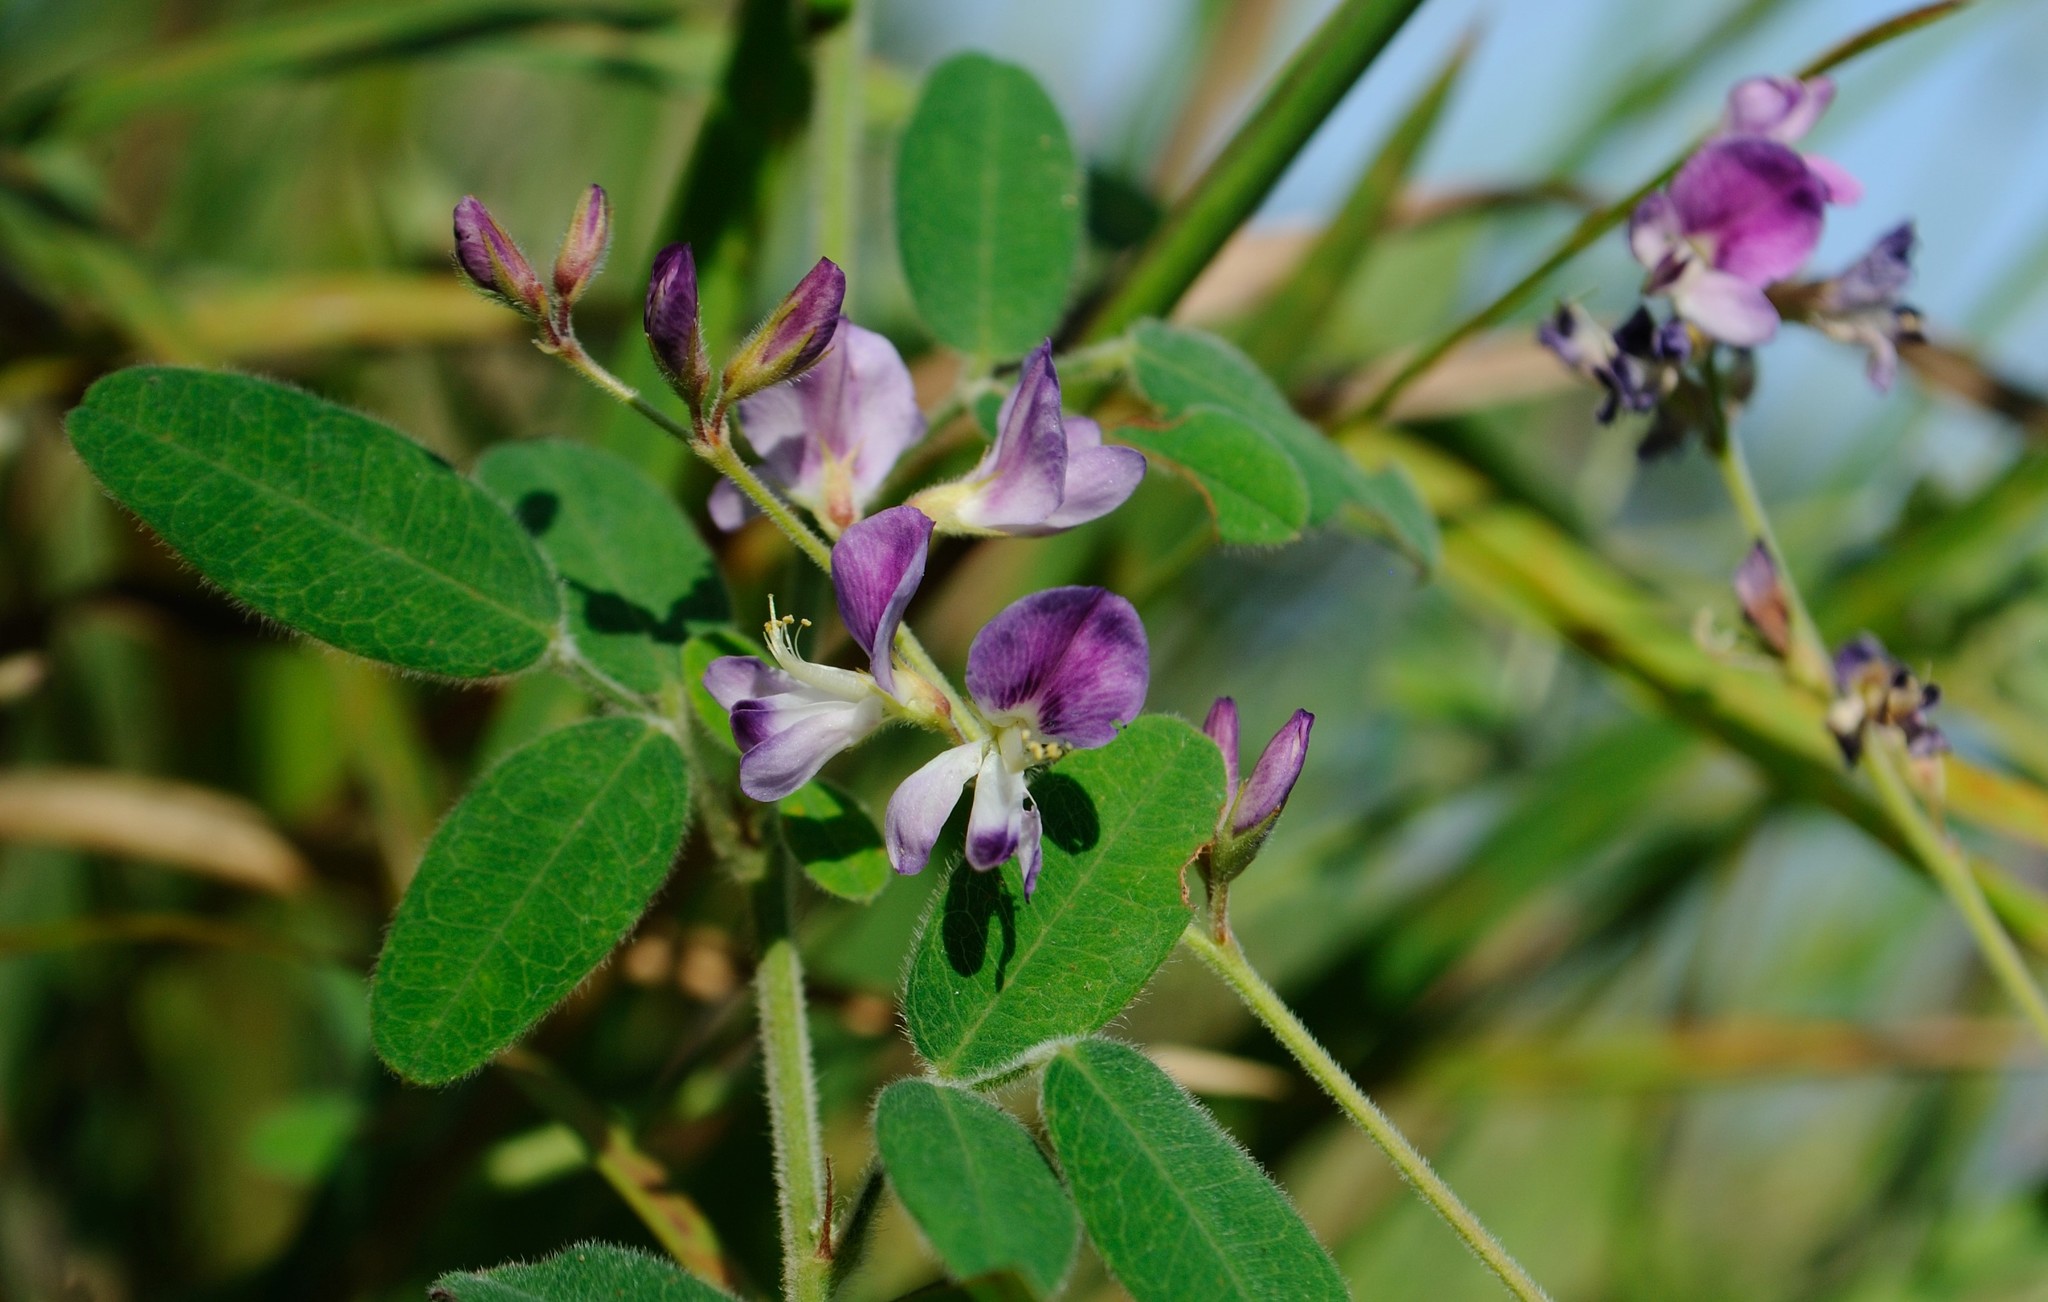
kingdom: Plantae
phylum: Tracheophyta
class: Magnoliopsida
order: Fabales
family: Fabaceae
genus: Lespedeza
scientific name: Lespedeza procumbens
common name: Downy trailing bush-clover
